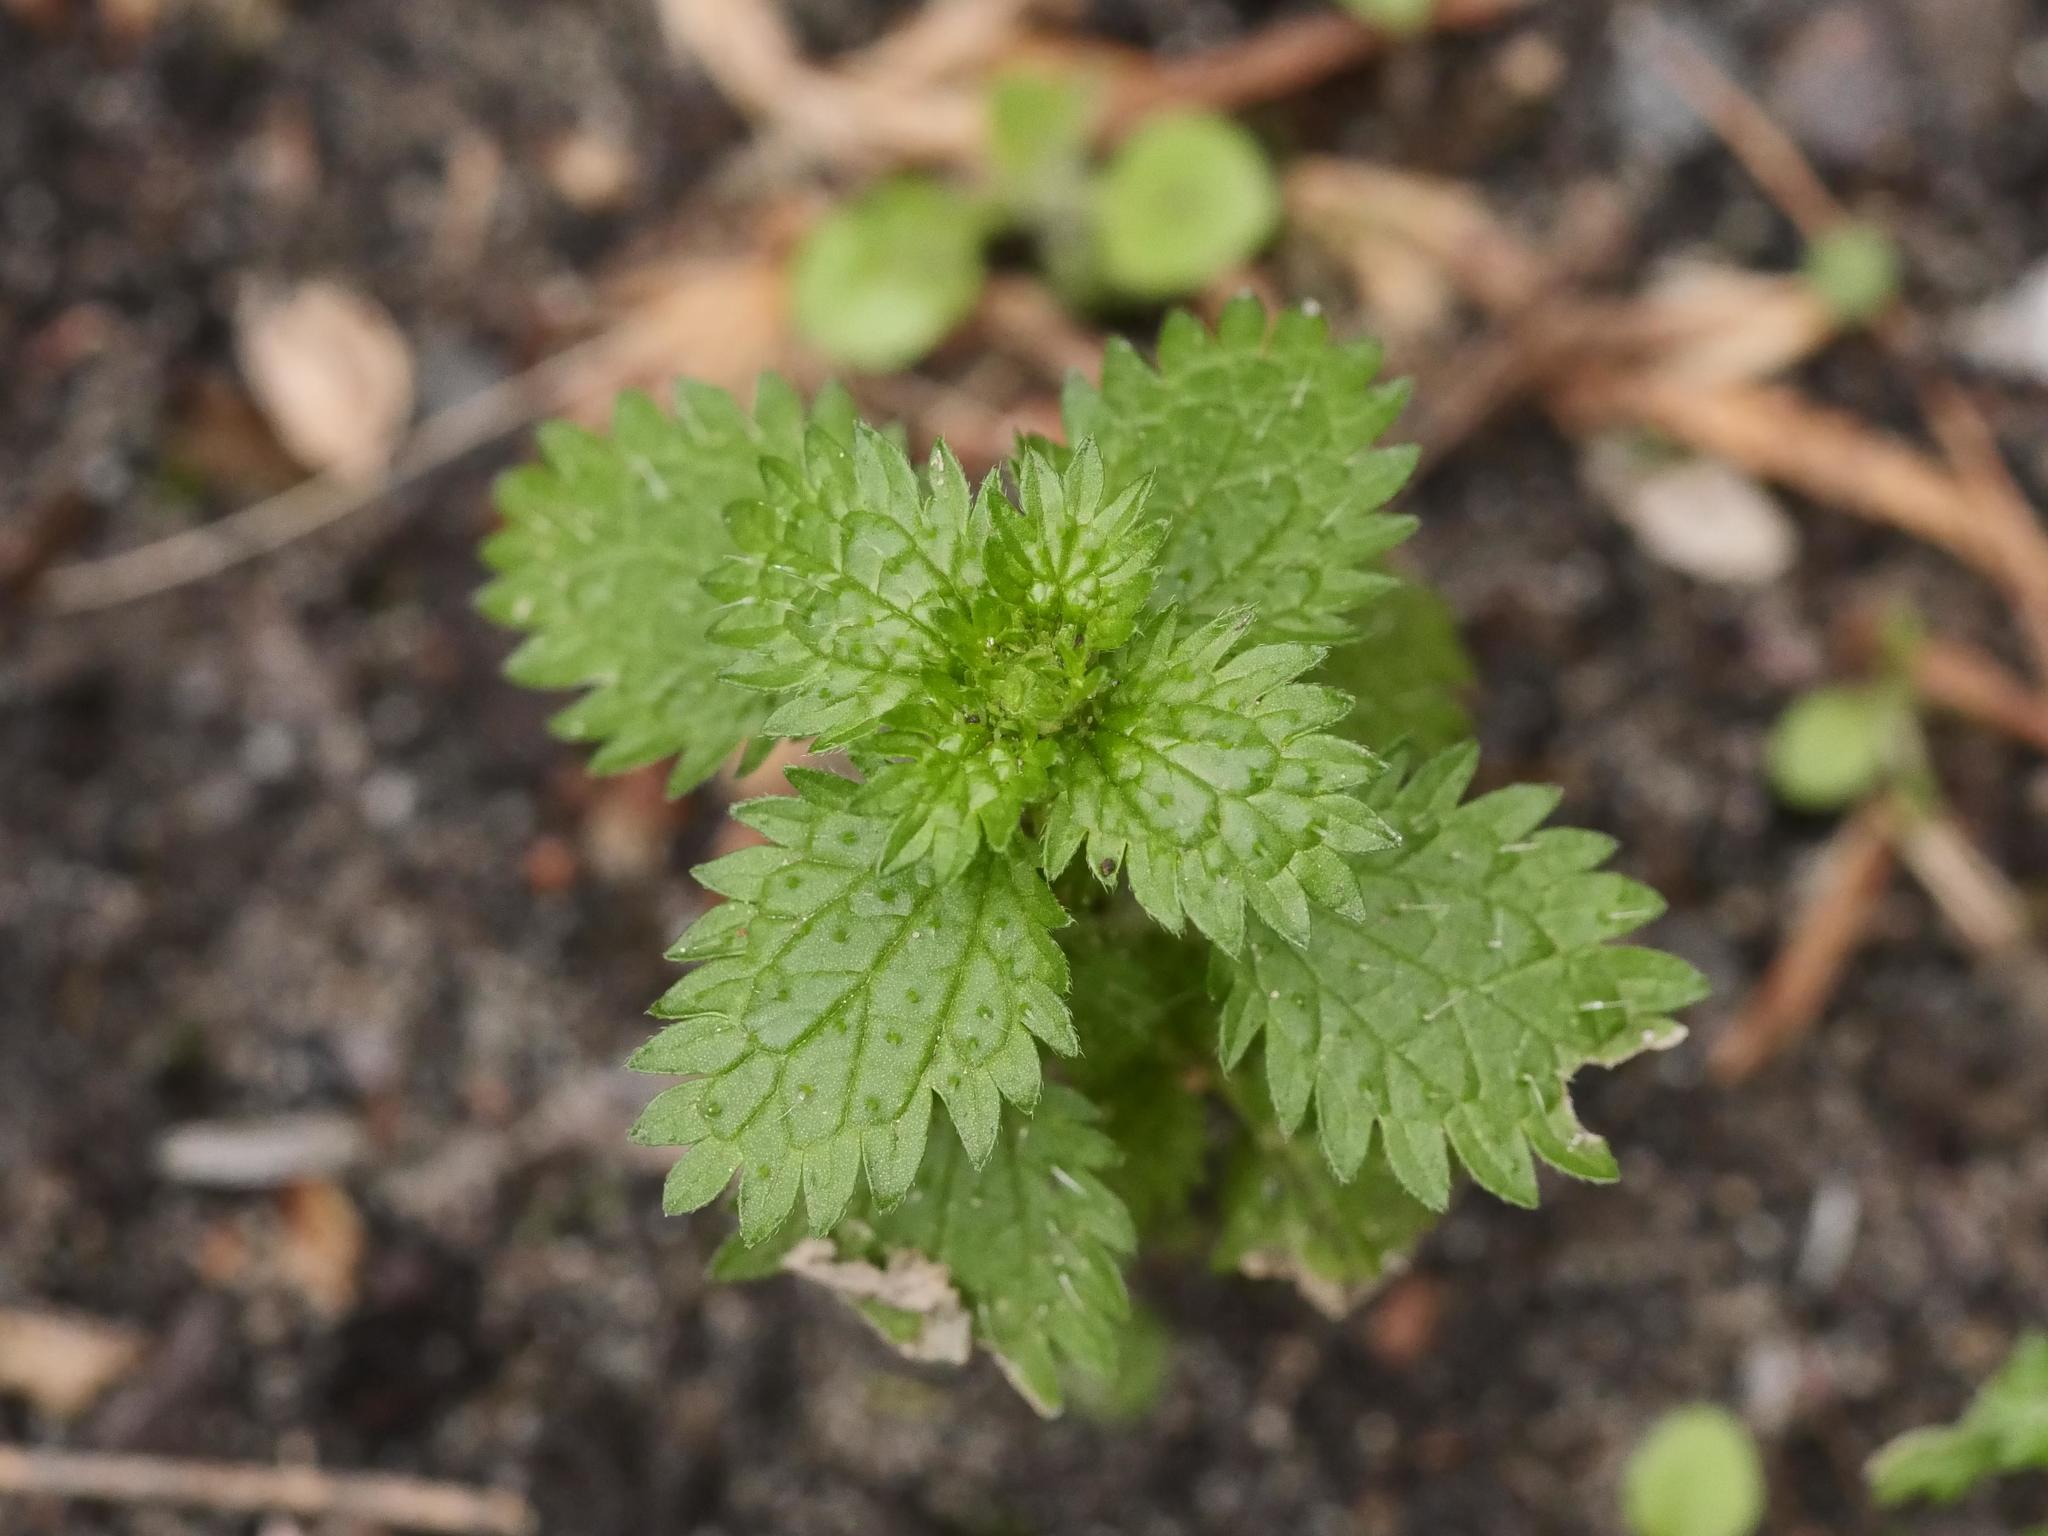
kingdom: Plantae
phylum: Tracheophyta
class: Magnoliopsida
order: Rosales
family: Urticaceae
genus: Urtica
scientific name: Urtica urens
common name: Dwarf nettle
